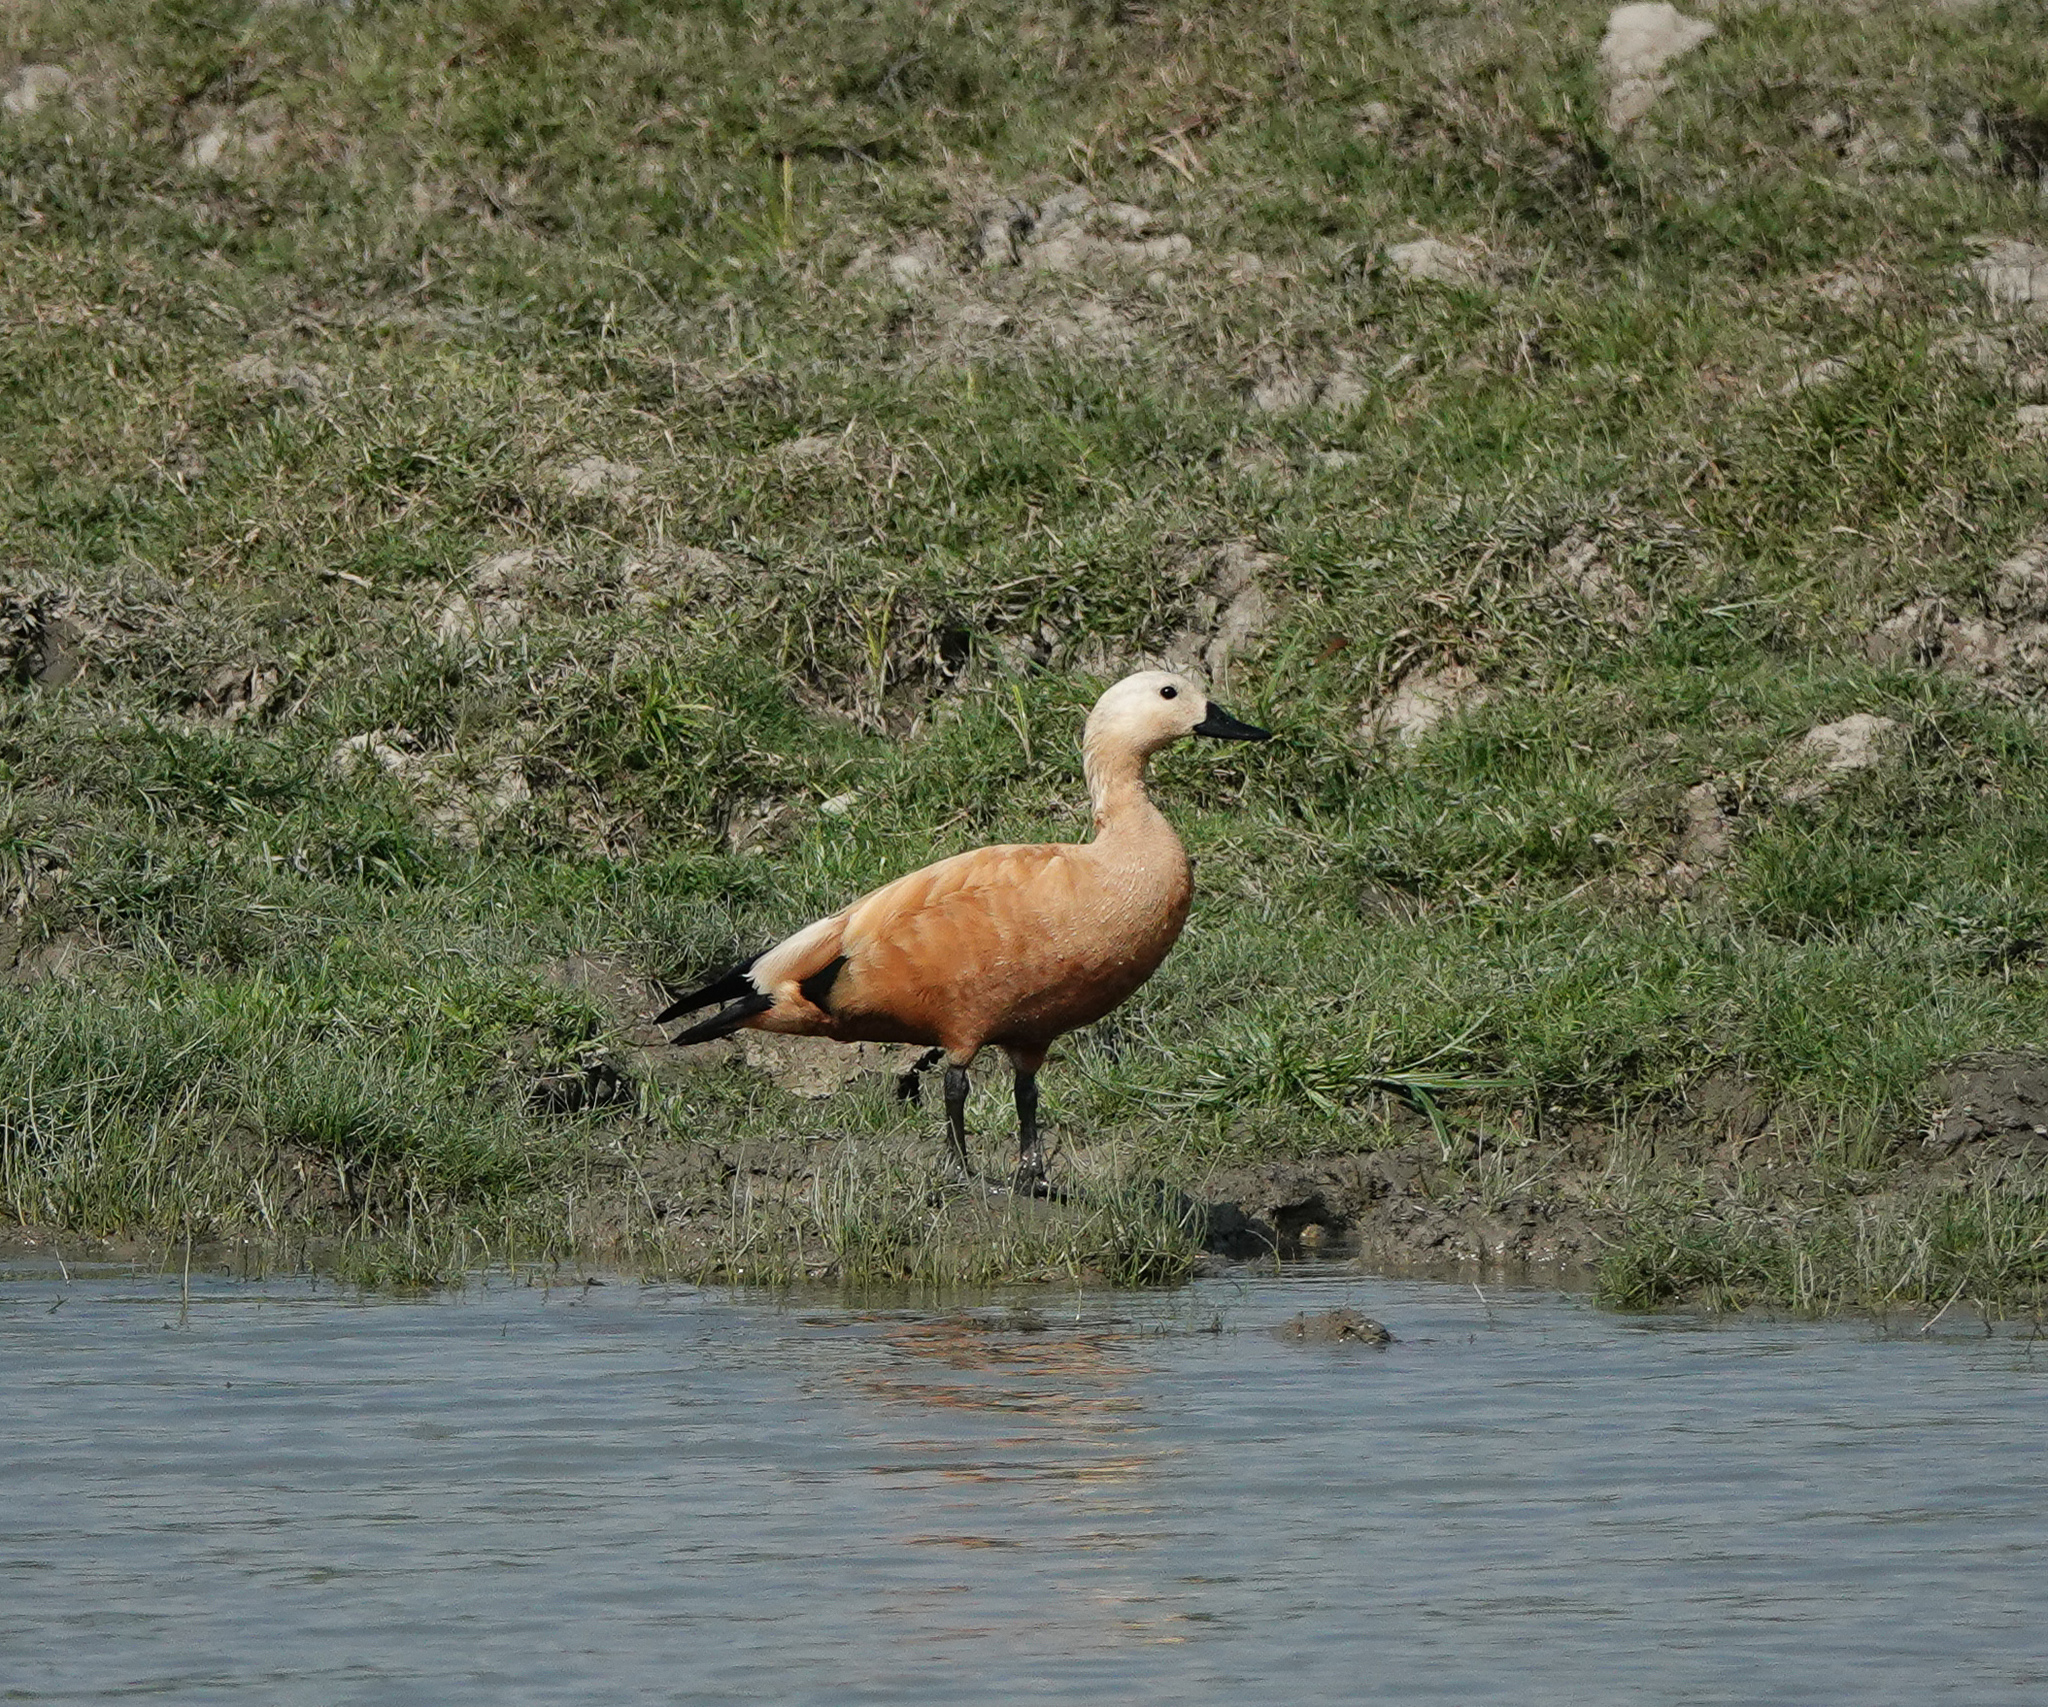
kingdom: Animalia
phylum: Chordata
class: Aves
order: Anseriformes
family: Anatidae
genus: Tadorna
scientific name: Tadorna ferruginea
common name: Ruddy shelduck
